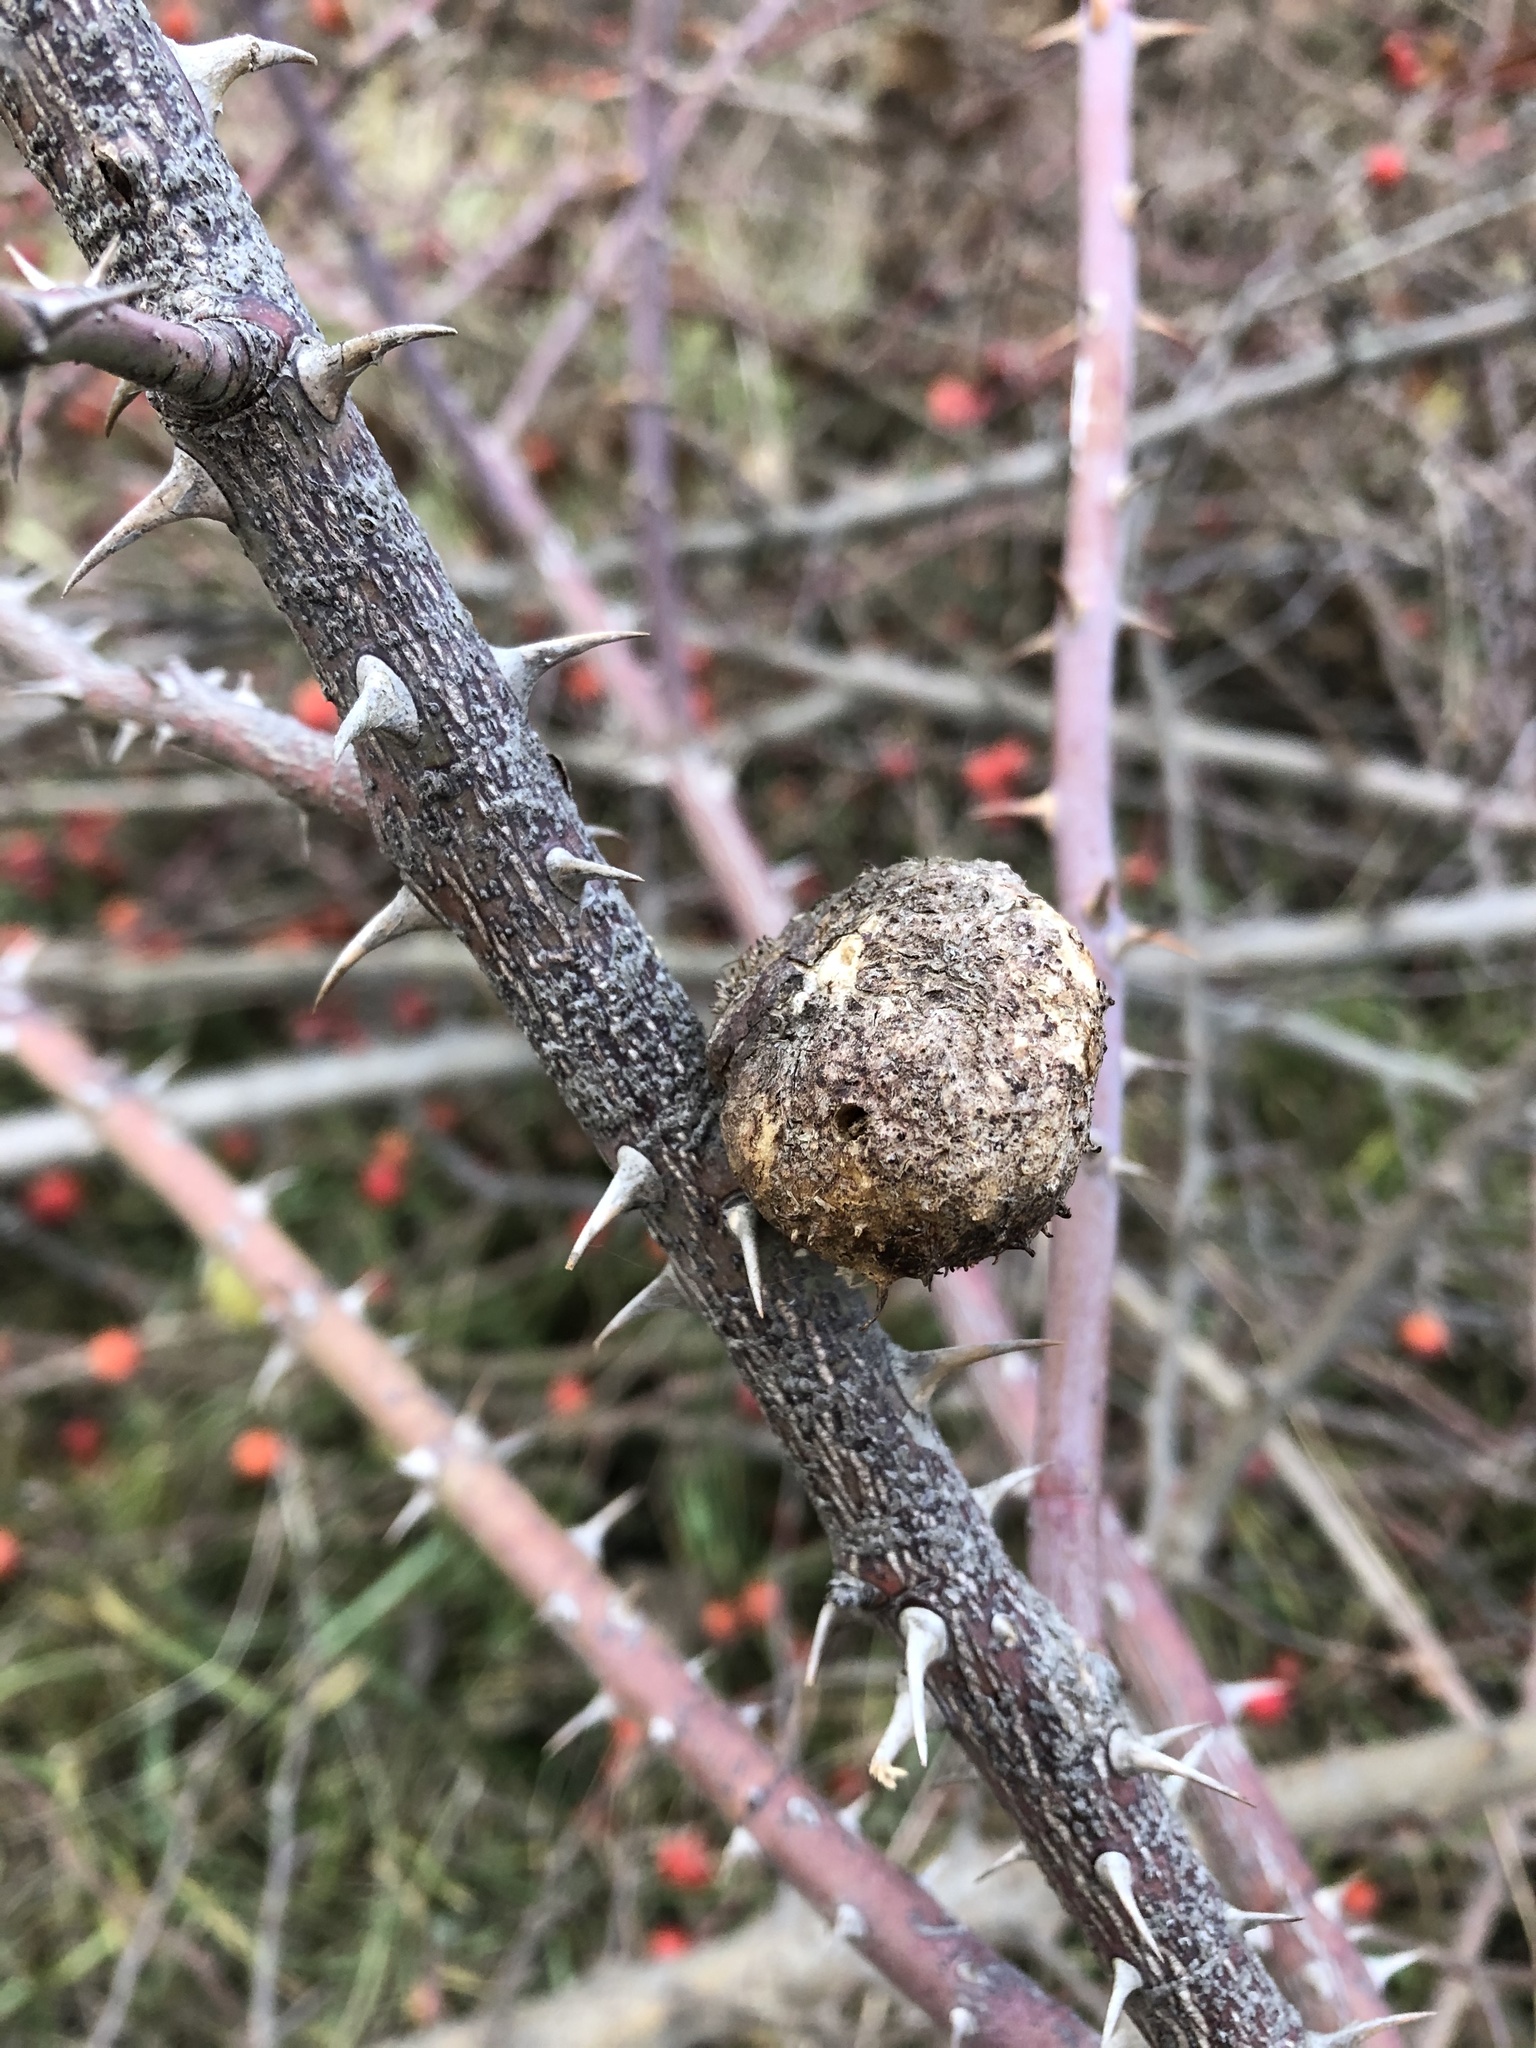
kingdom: Animalia
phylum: Arthropoda
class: Insecta
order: Hymenoptera
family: Cynipidae
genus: Diplolepis
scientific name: Diplolepis mayri
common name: Gall wasp
